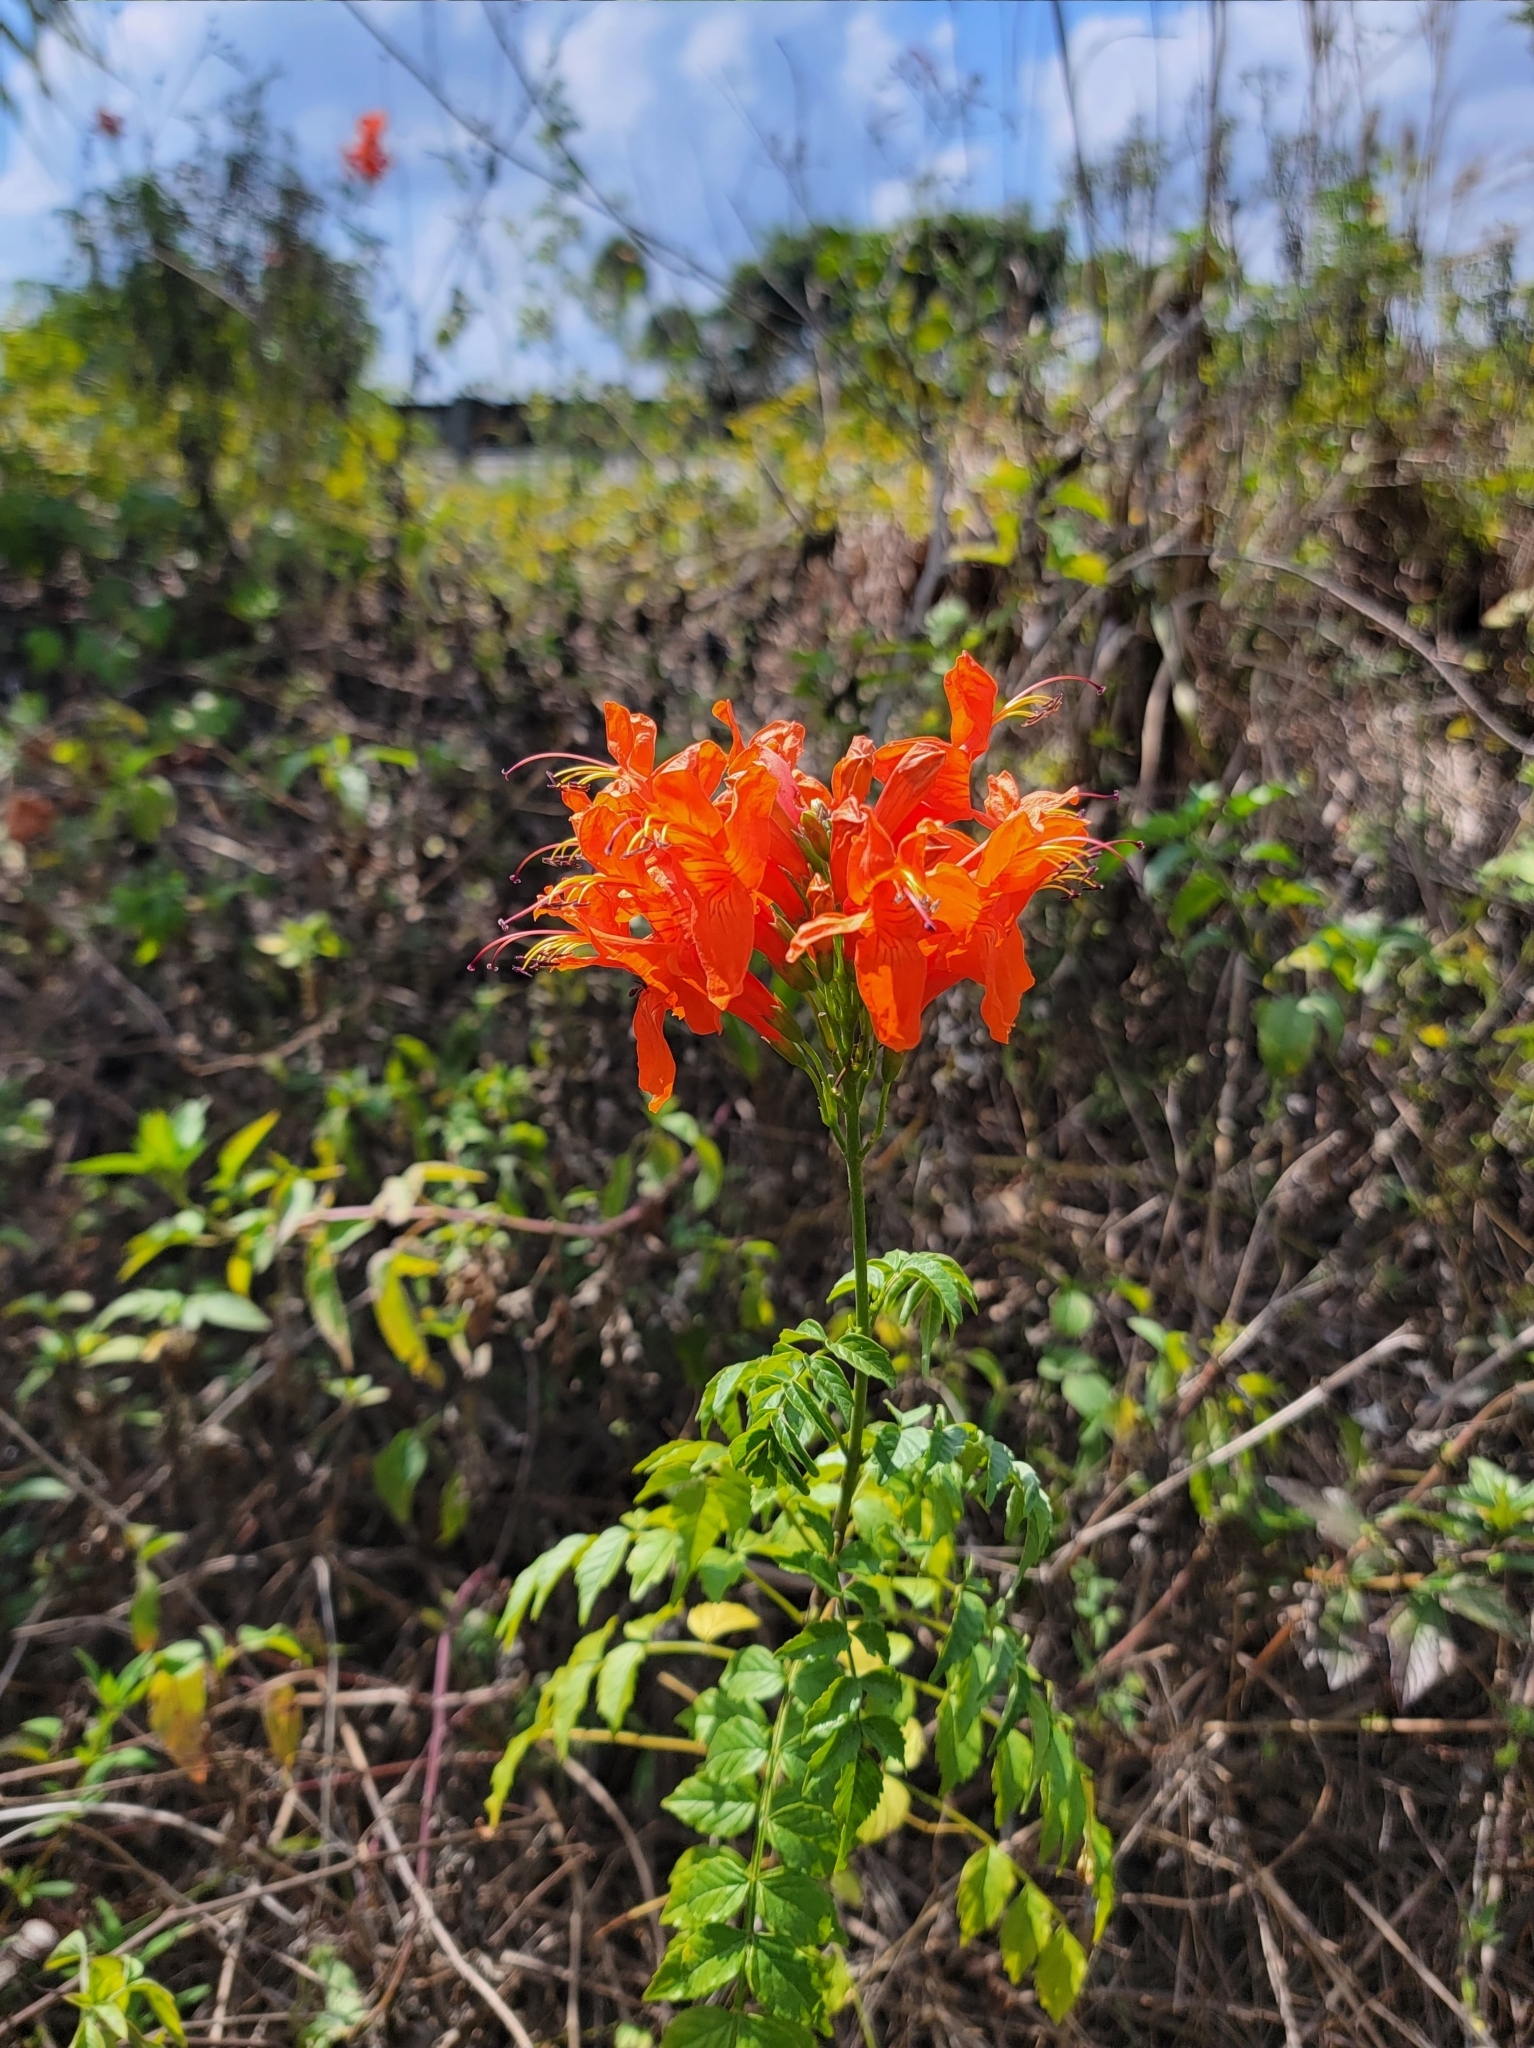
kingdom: Plantae
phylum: Tracheophyta
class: Magnoliopsida
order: Lamiales
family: Bignoniaceae
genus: Tecomaria
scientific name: Tecomaria capensis
